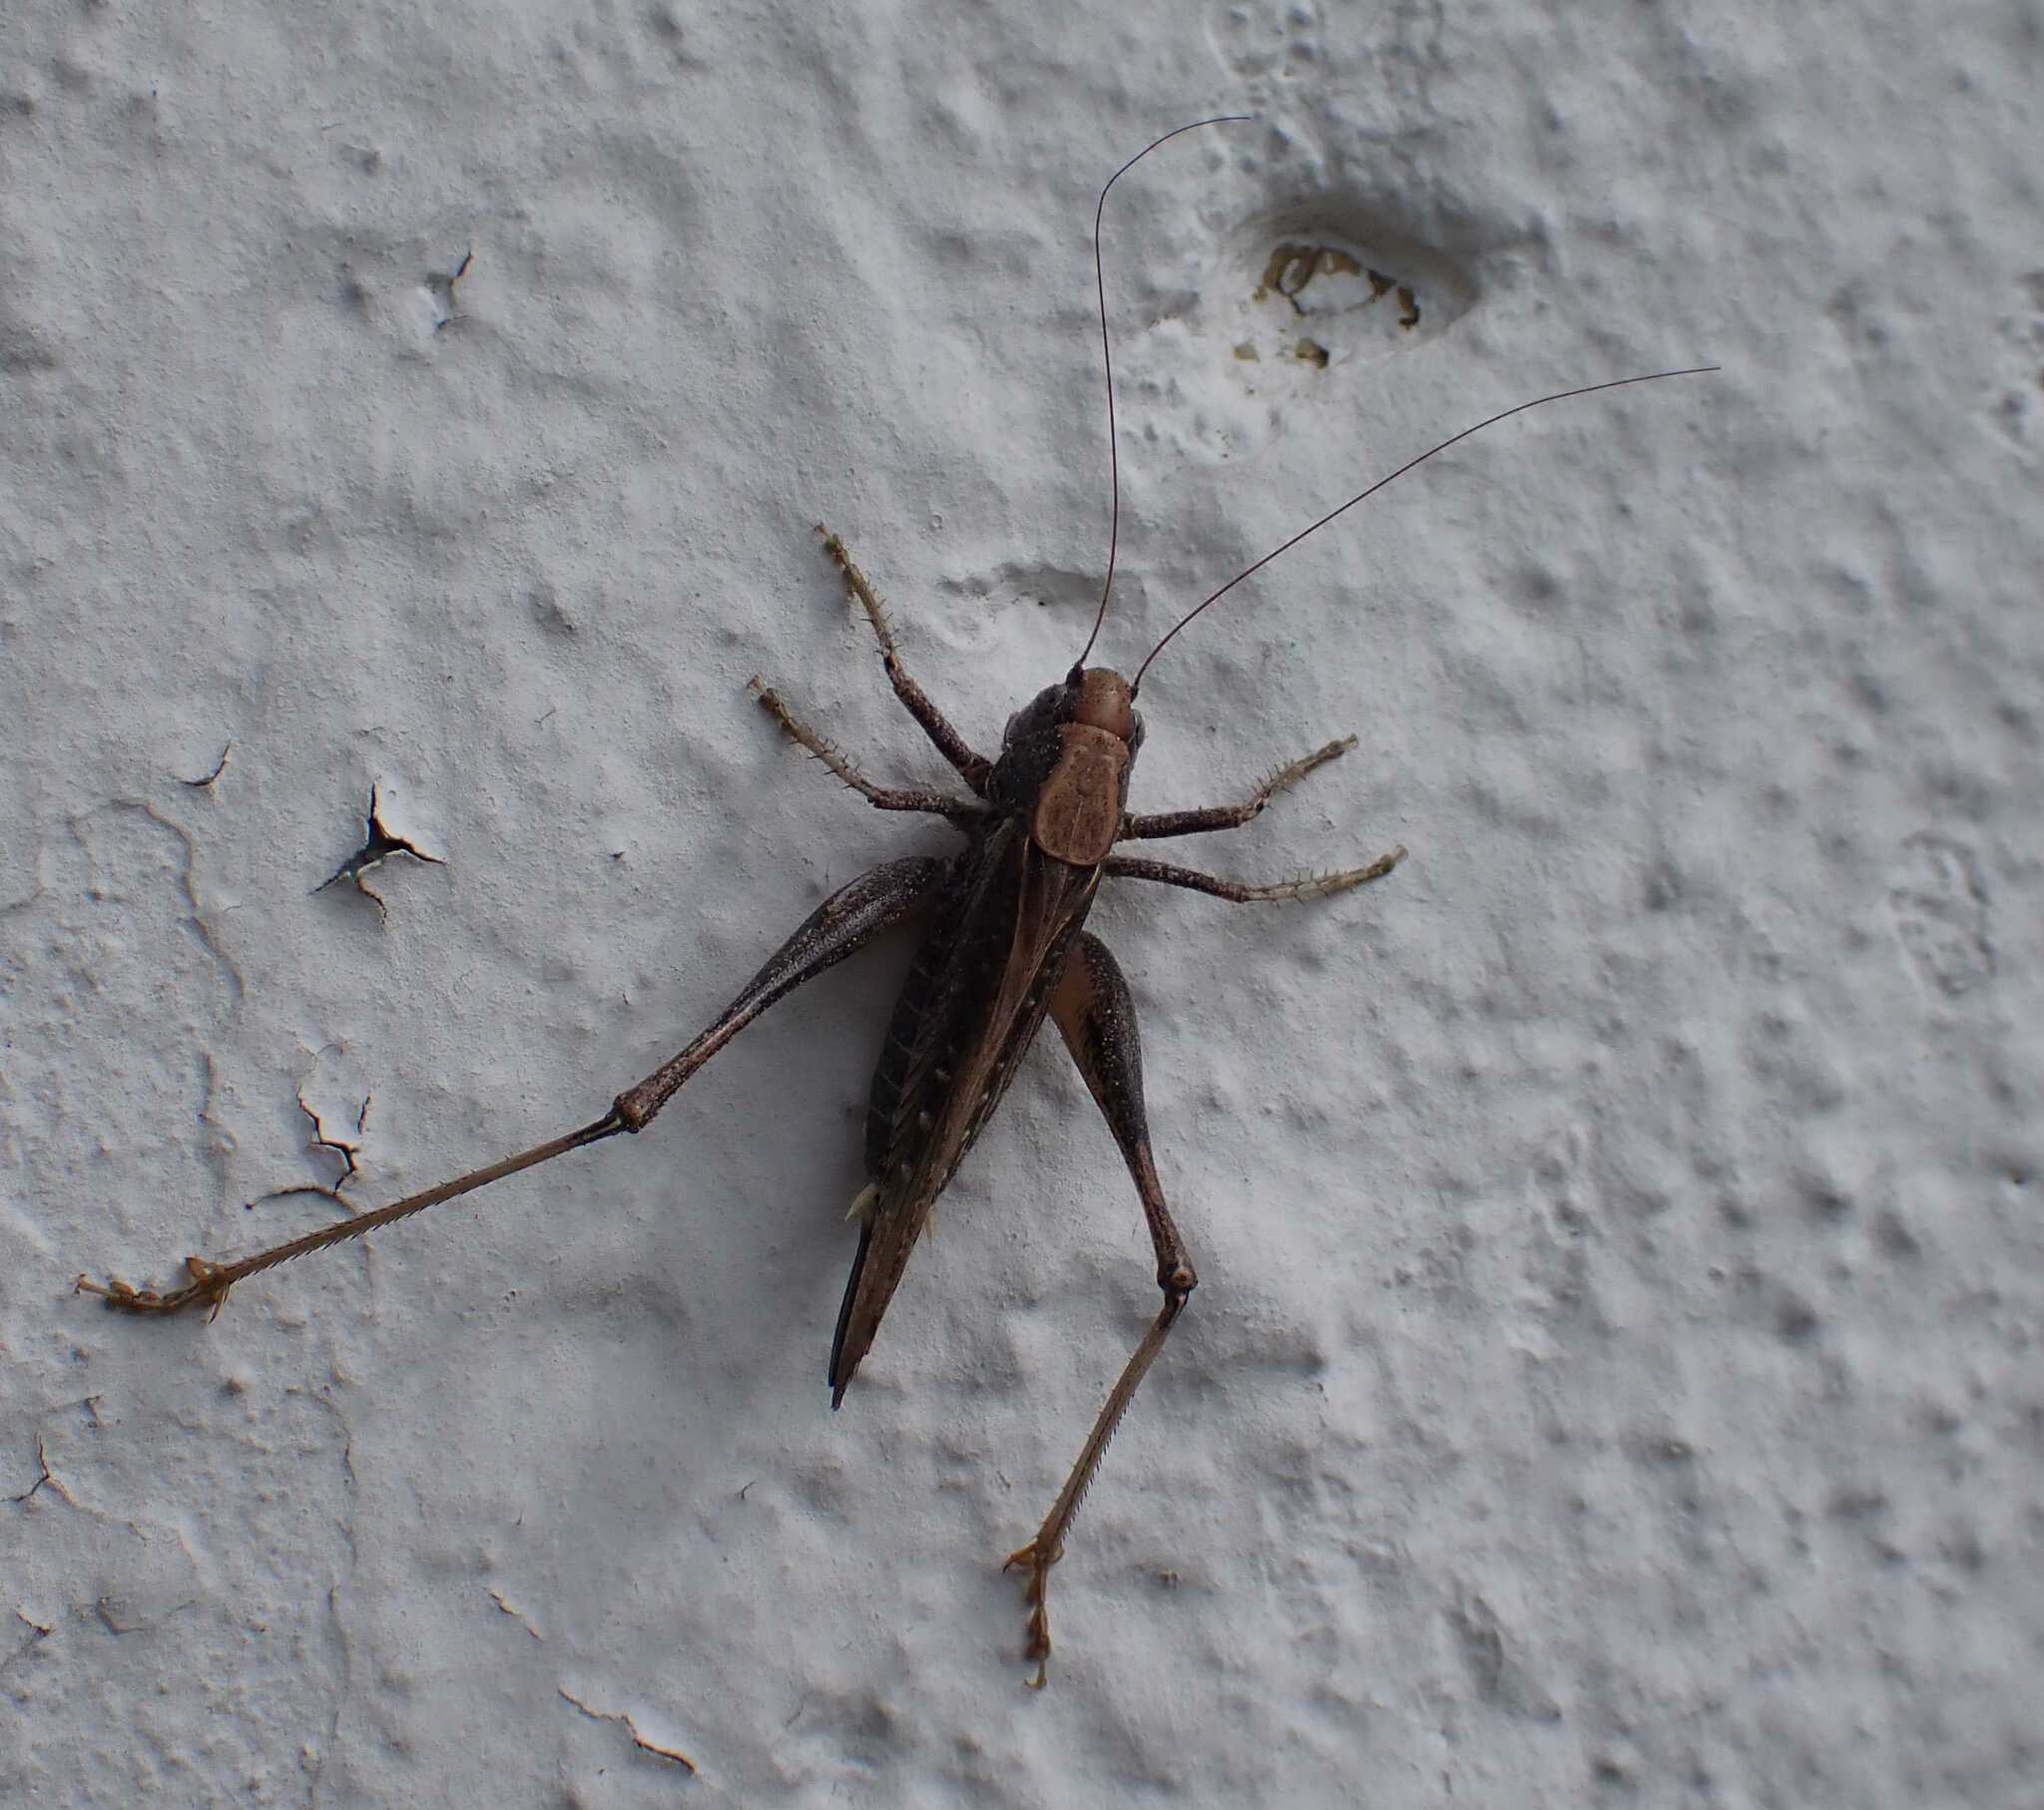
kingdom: Animalia
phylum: Arthropoda
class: Insecta
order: Orthoptera
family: Tettigoniidae
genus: Platycleis
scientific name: Platycleis albopunctata
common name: Grey bush-cricket
